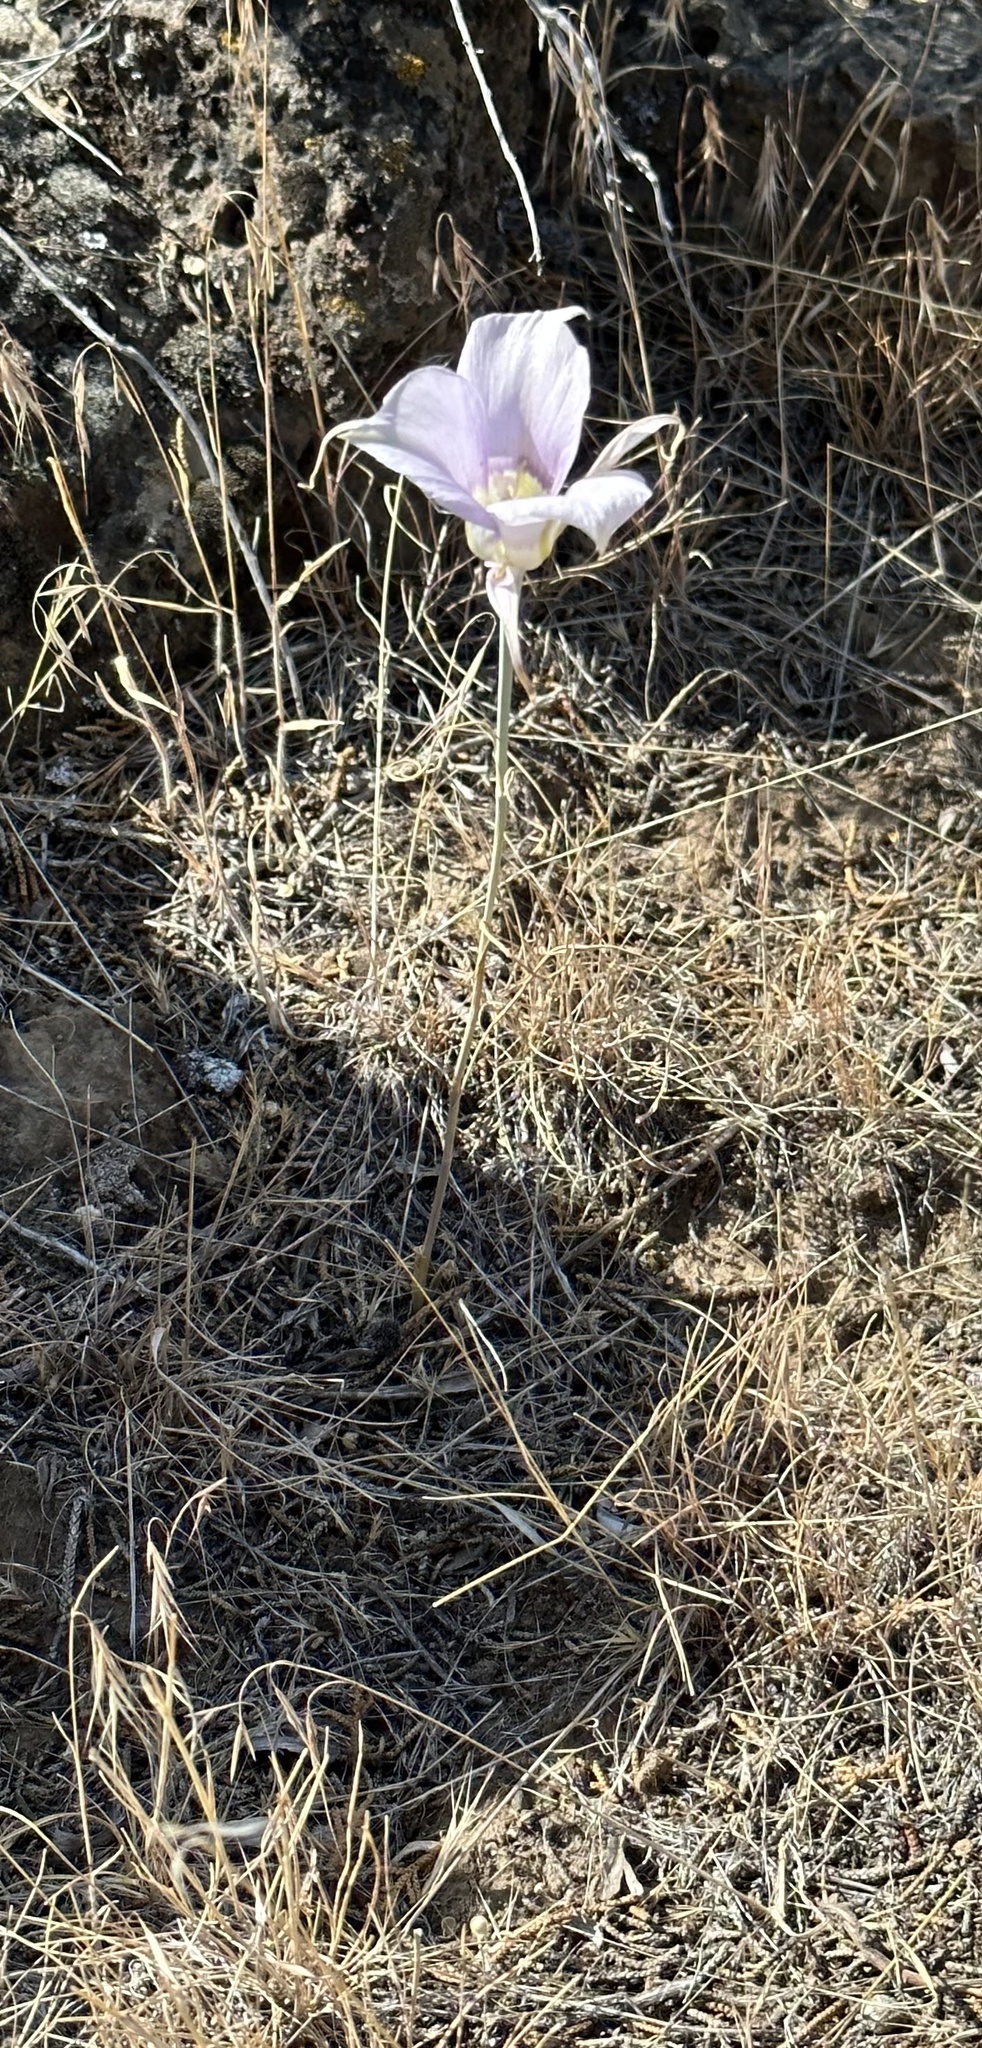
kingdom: Plantae
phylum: Tracheophyta
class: Liliopsida
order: Liliales
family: Liliaceae
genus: Calochortus
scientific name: Calochortus macrocarpus
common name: Green-band mariposa lily
